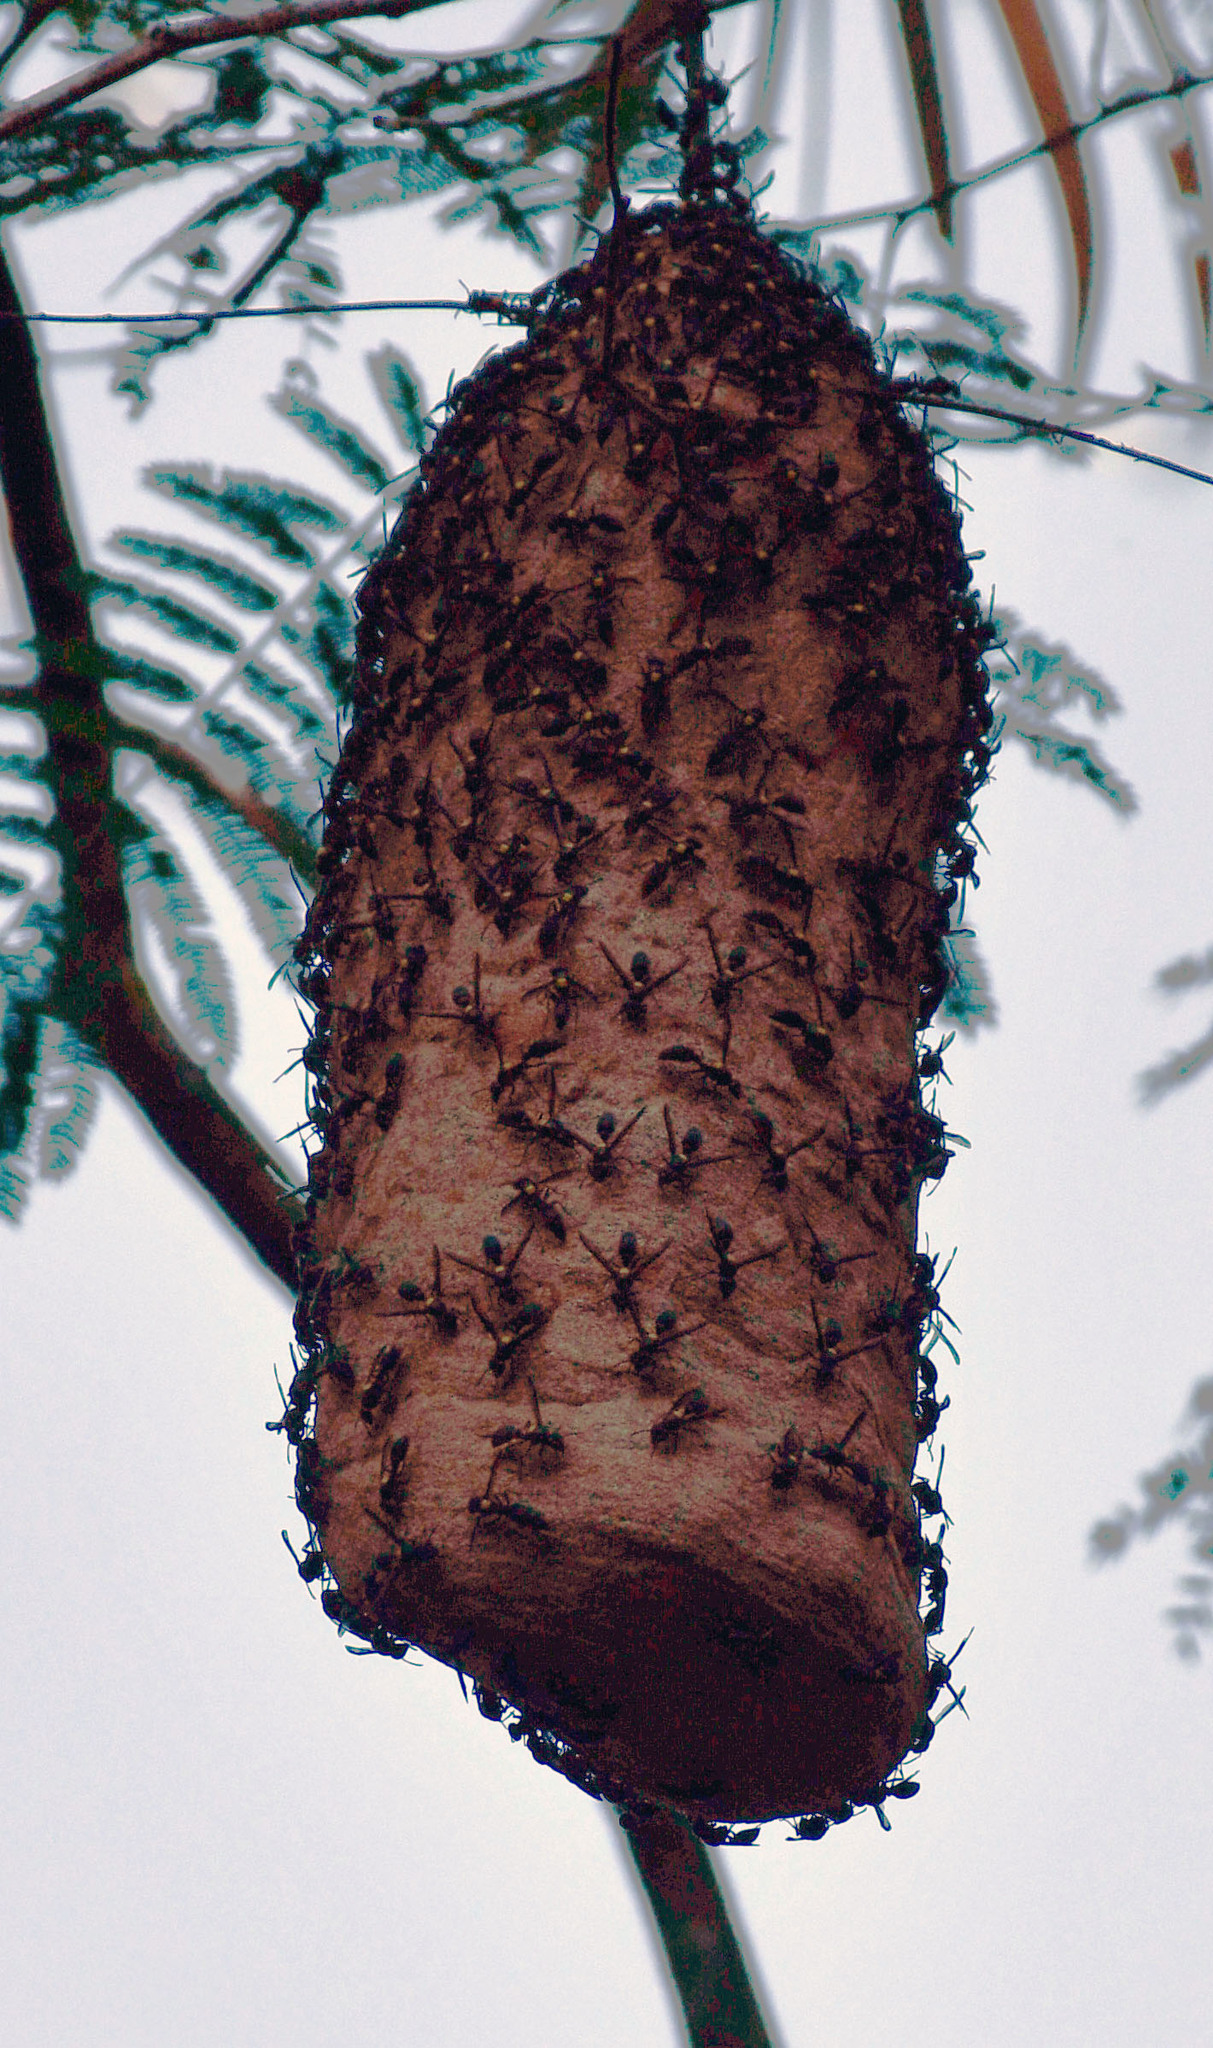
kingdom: Animalia
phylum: Arthropoda
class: Insecta
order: Hymenoptera
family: Eumenidae
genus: Polybia
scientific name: Polybia jurinei
